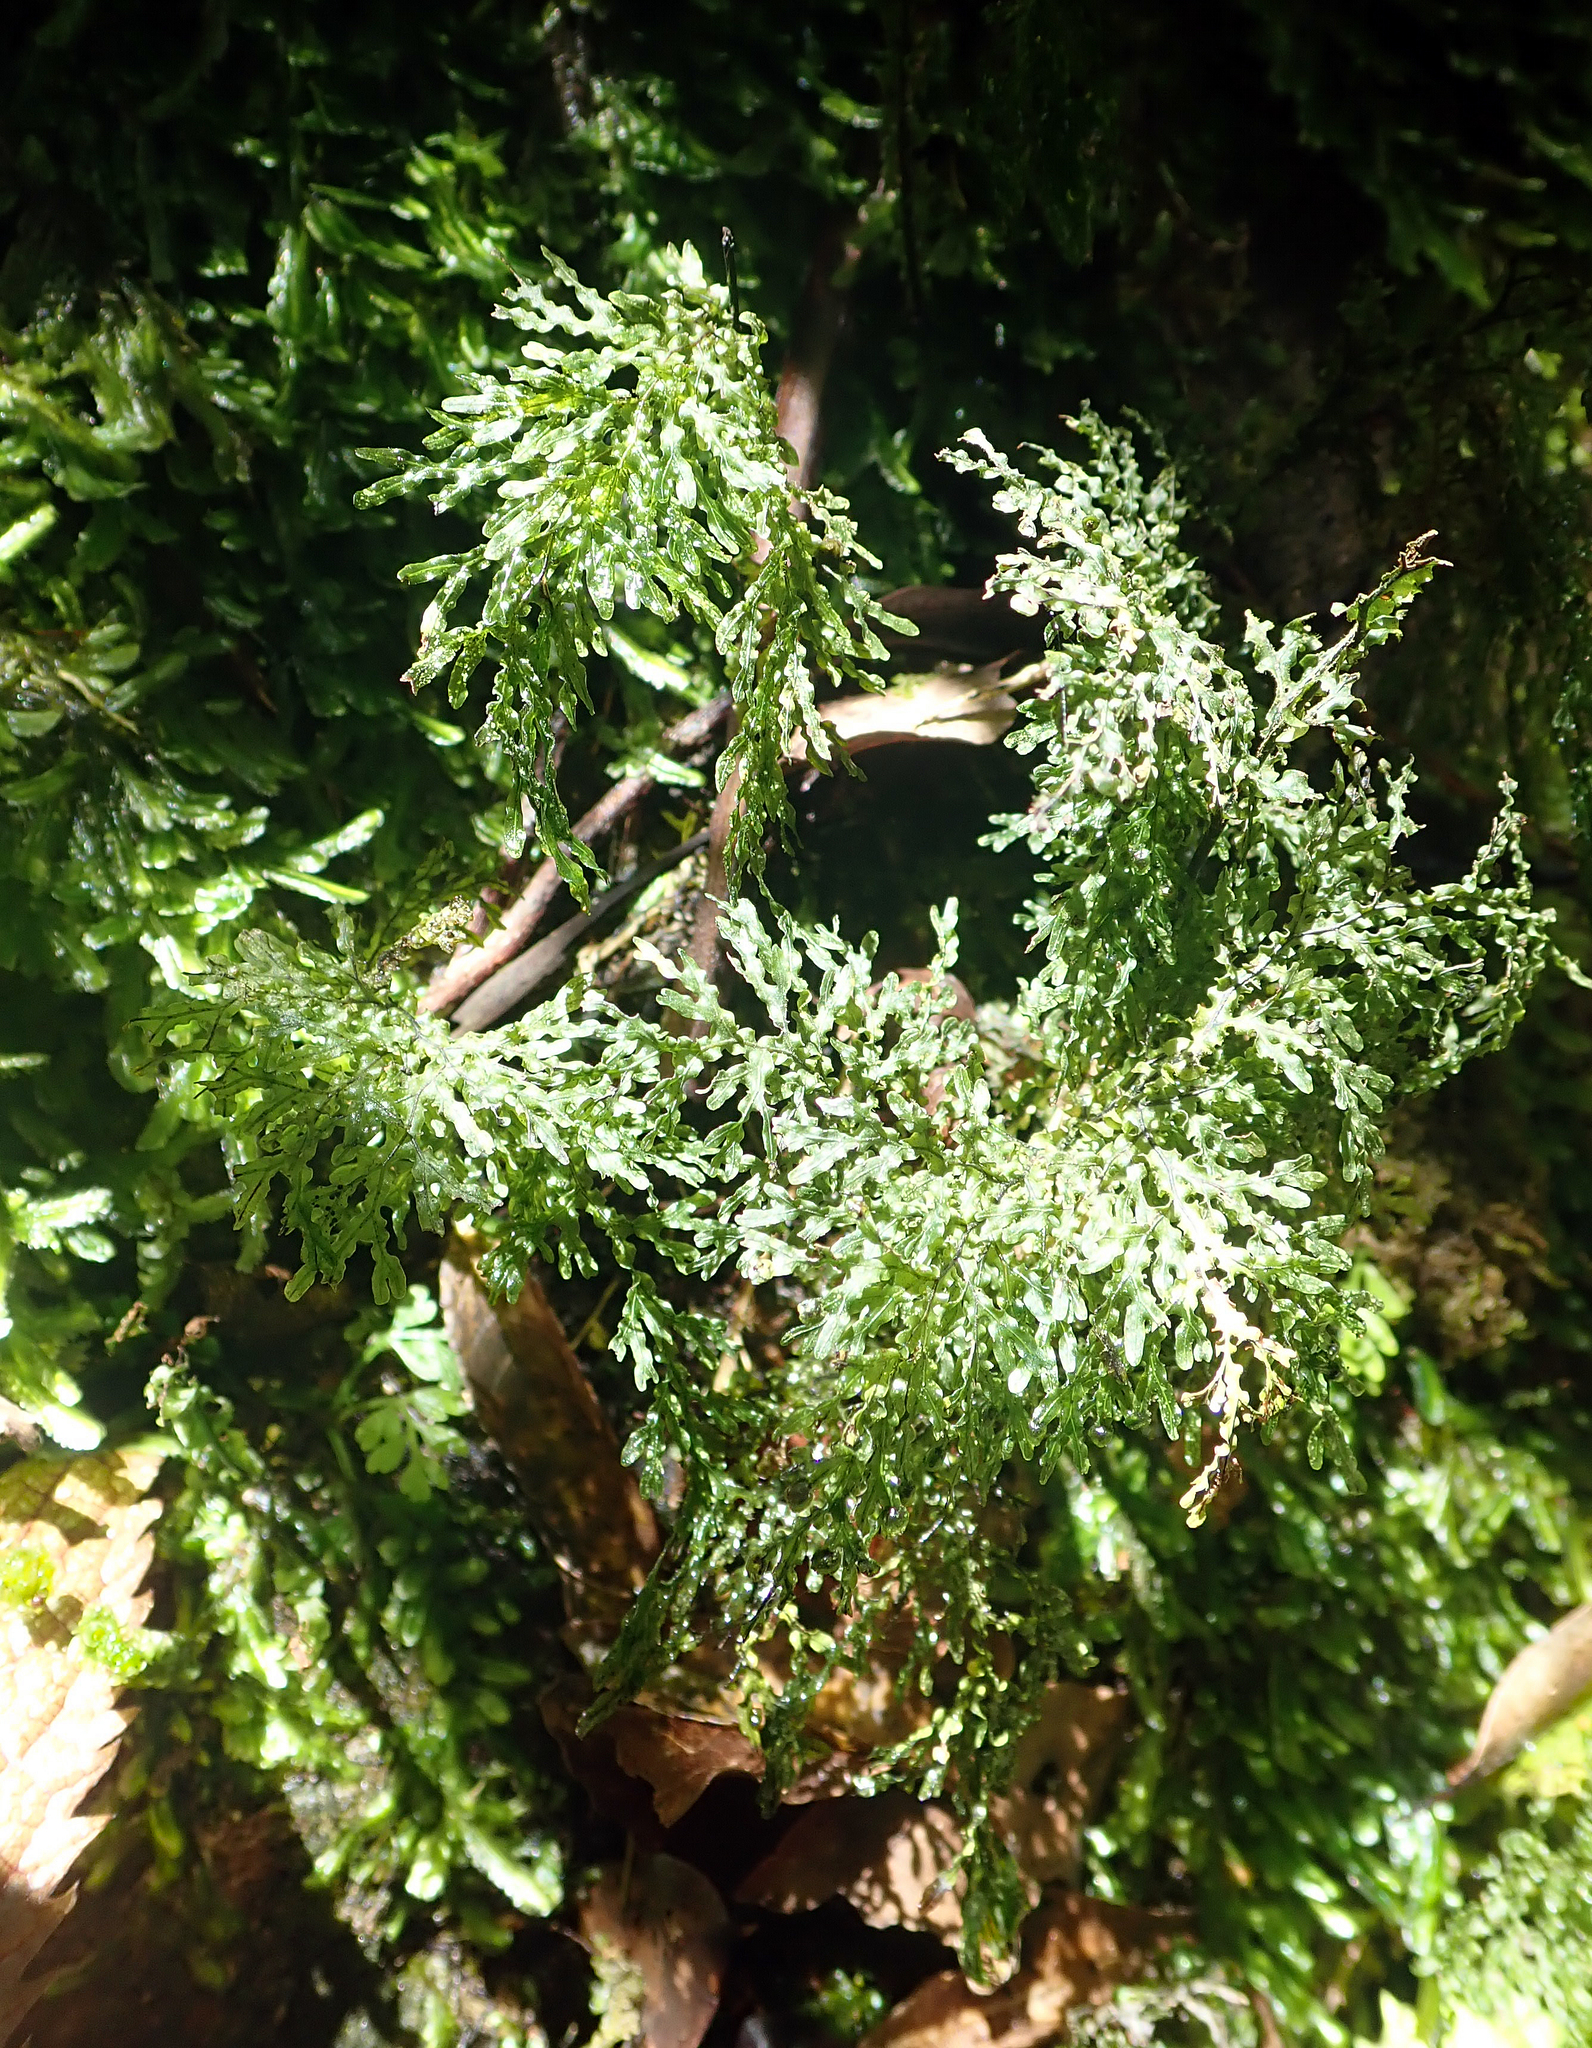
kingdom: Plantae
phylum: Tracheophyta
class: Polypodiopsida
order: Hymenophyllales
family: Hymenophyllaceae
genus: Hymenophyllum
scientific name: Hymenophyllum flexuosum
